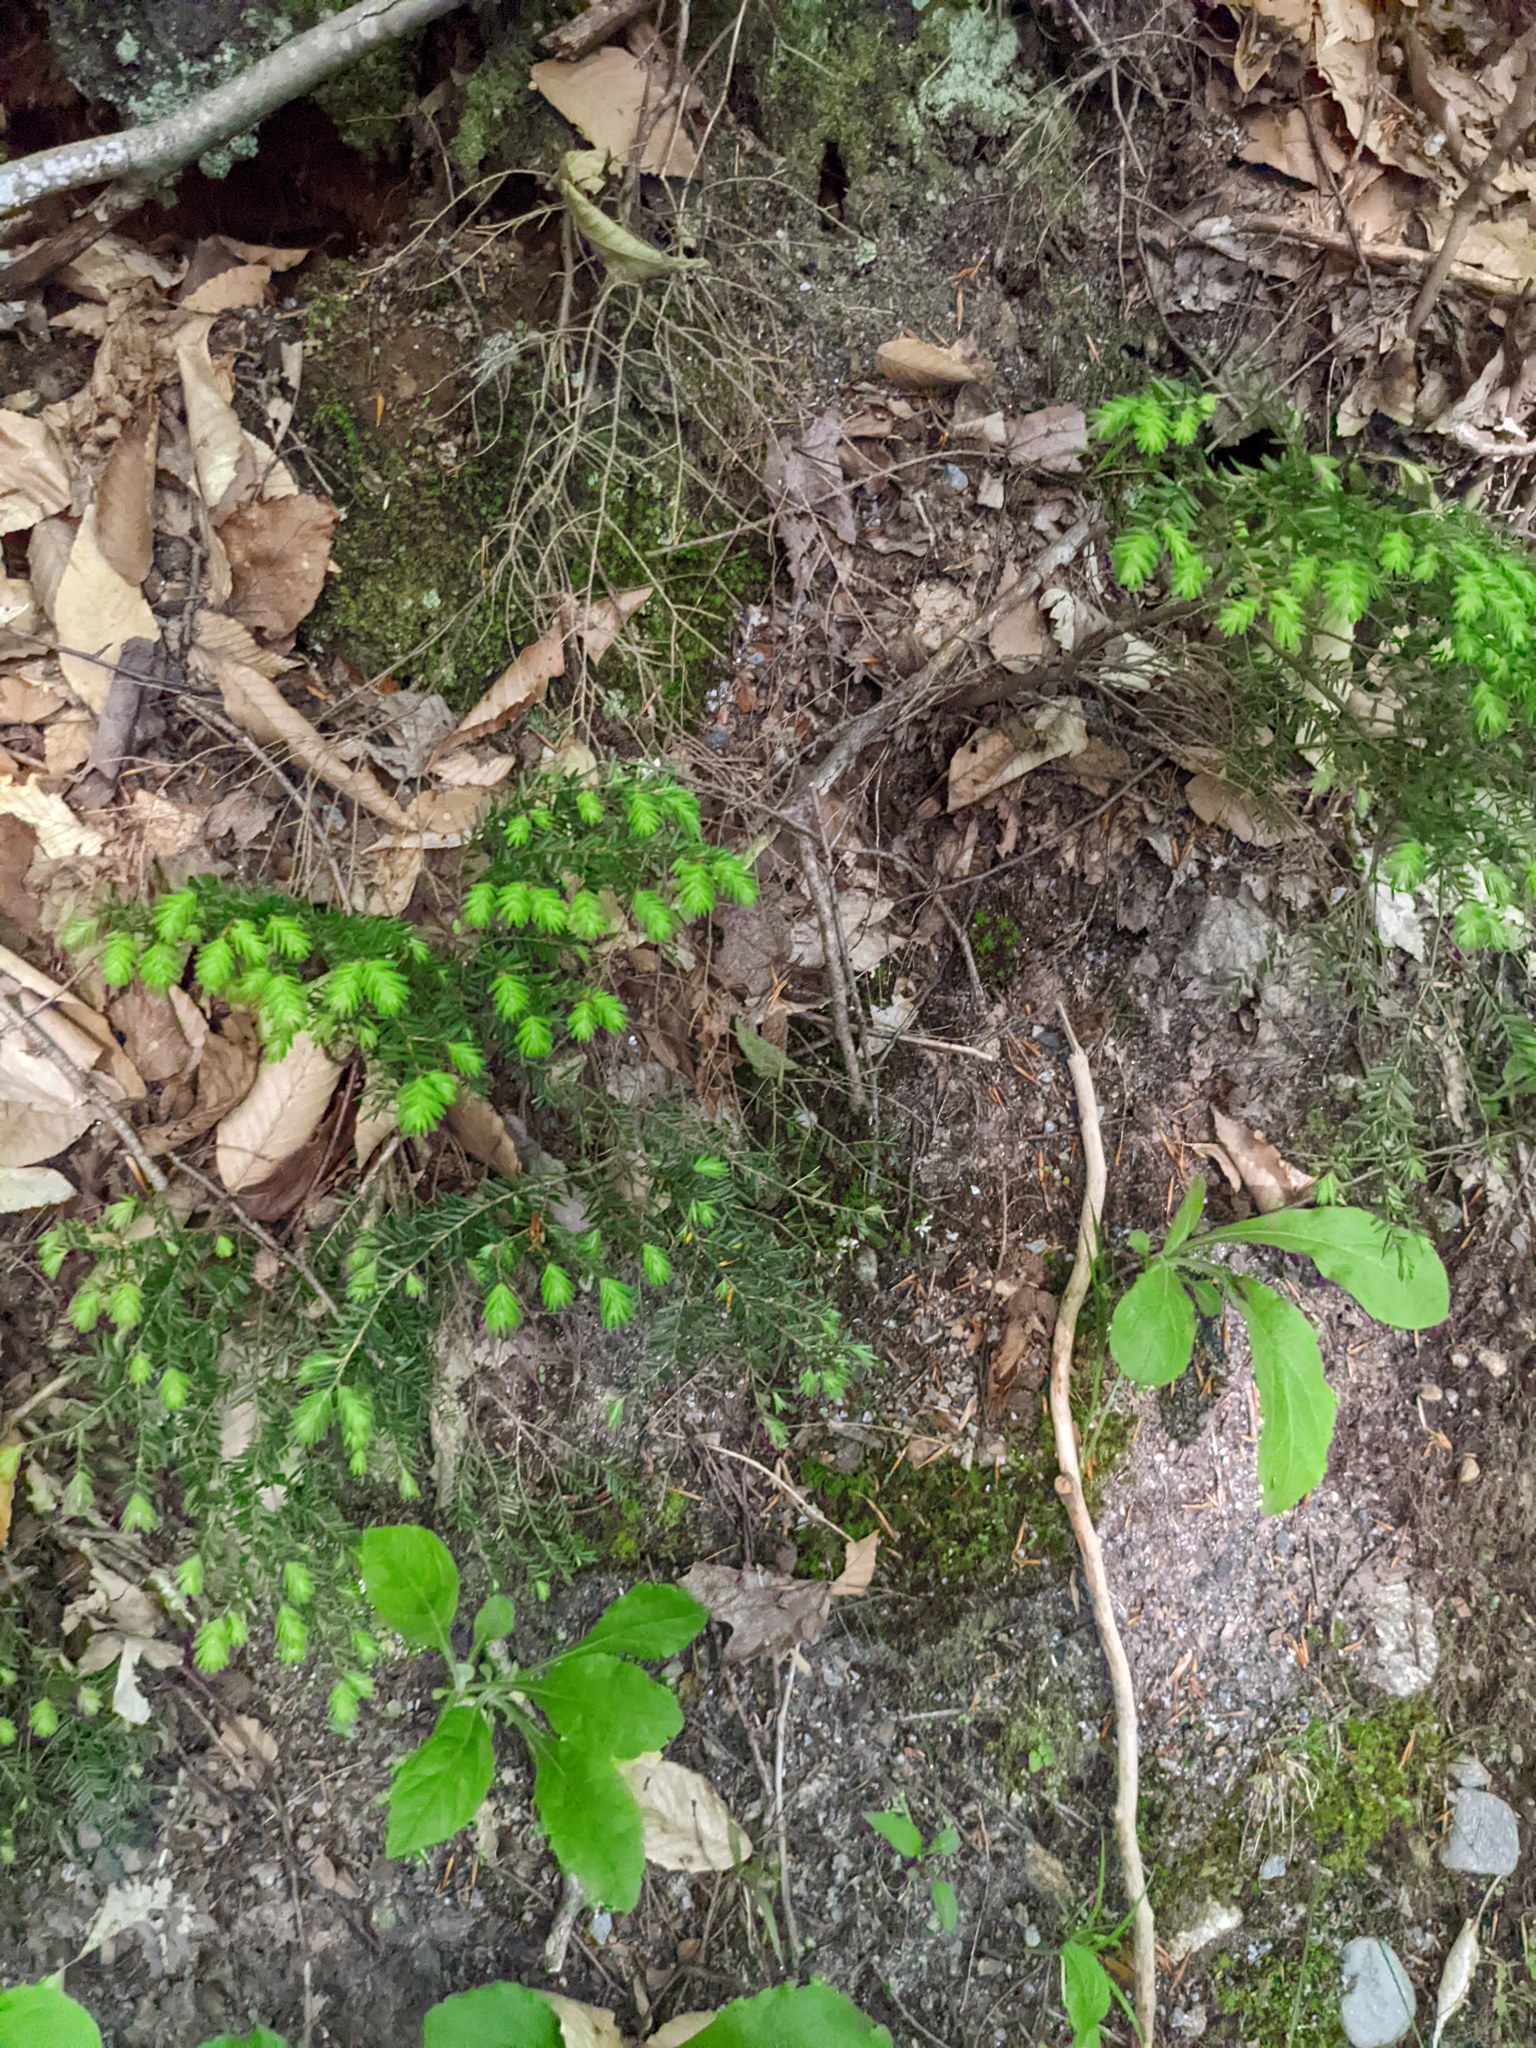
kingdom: Plantae
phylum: Tracheophyta
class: Pinopsida
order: Pinales
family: Pinaceae
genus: Tsuga
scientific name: Tsuga canadensis
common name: Eastern hemlock
